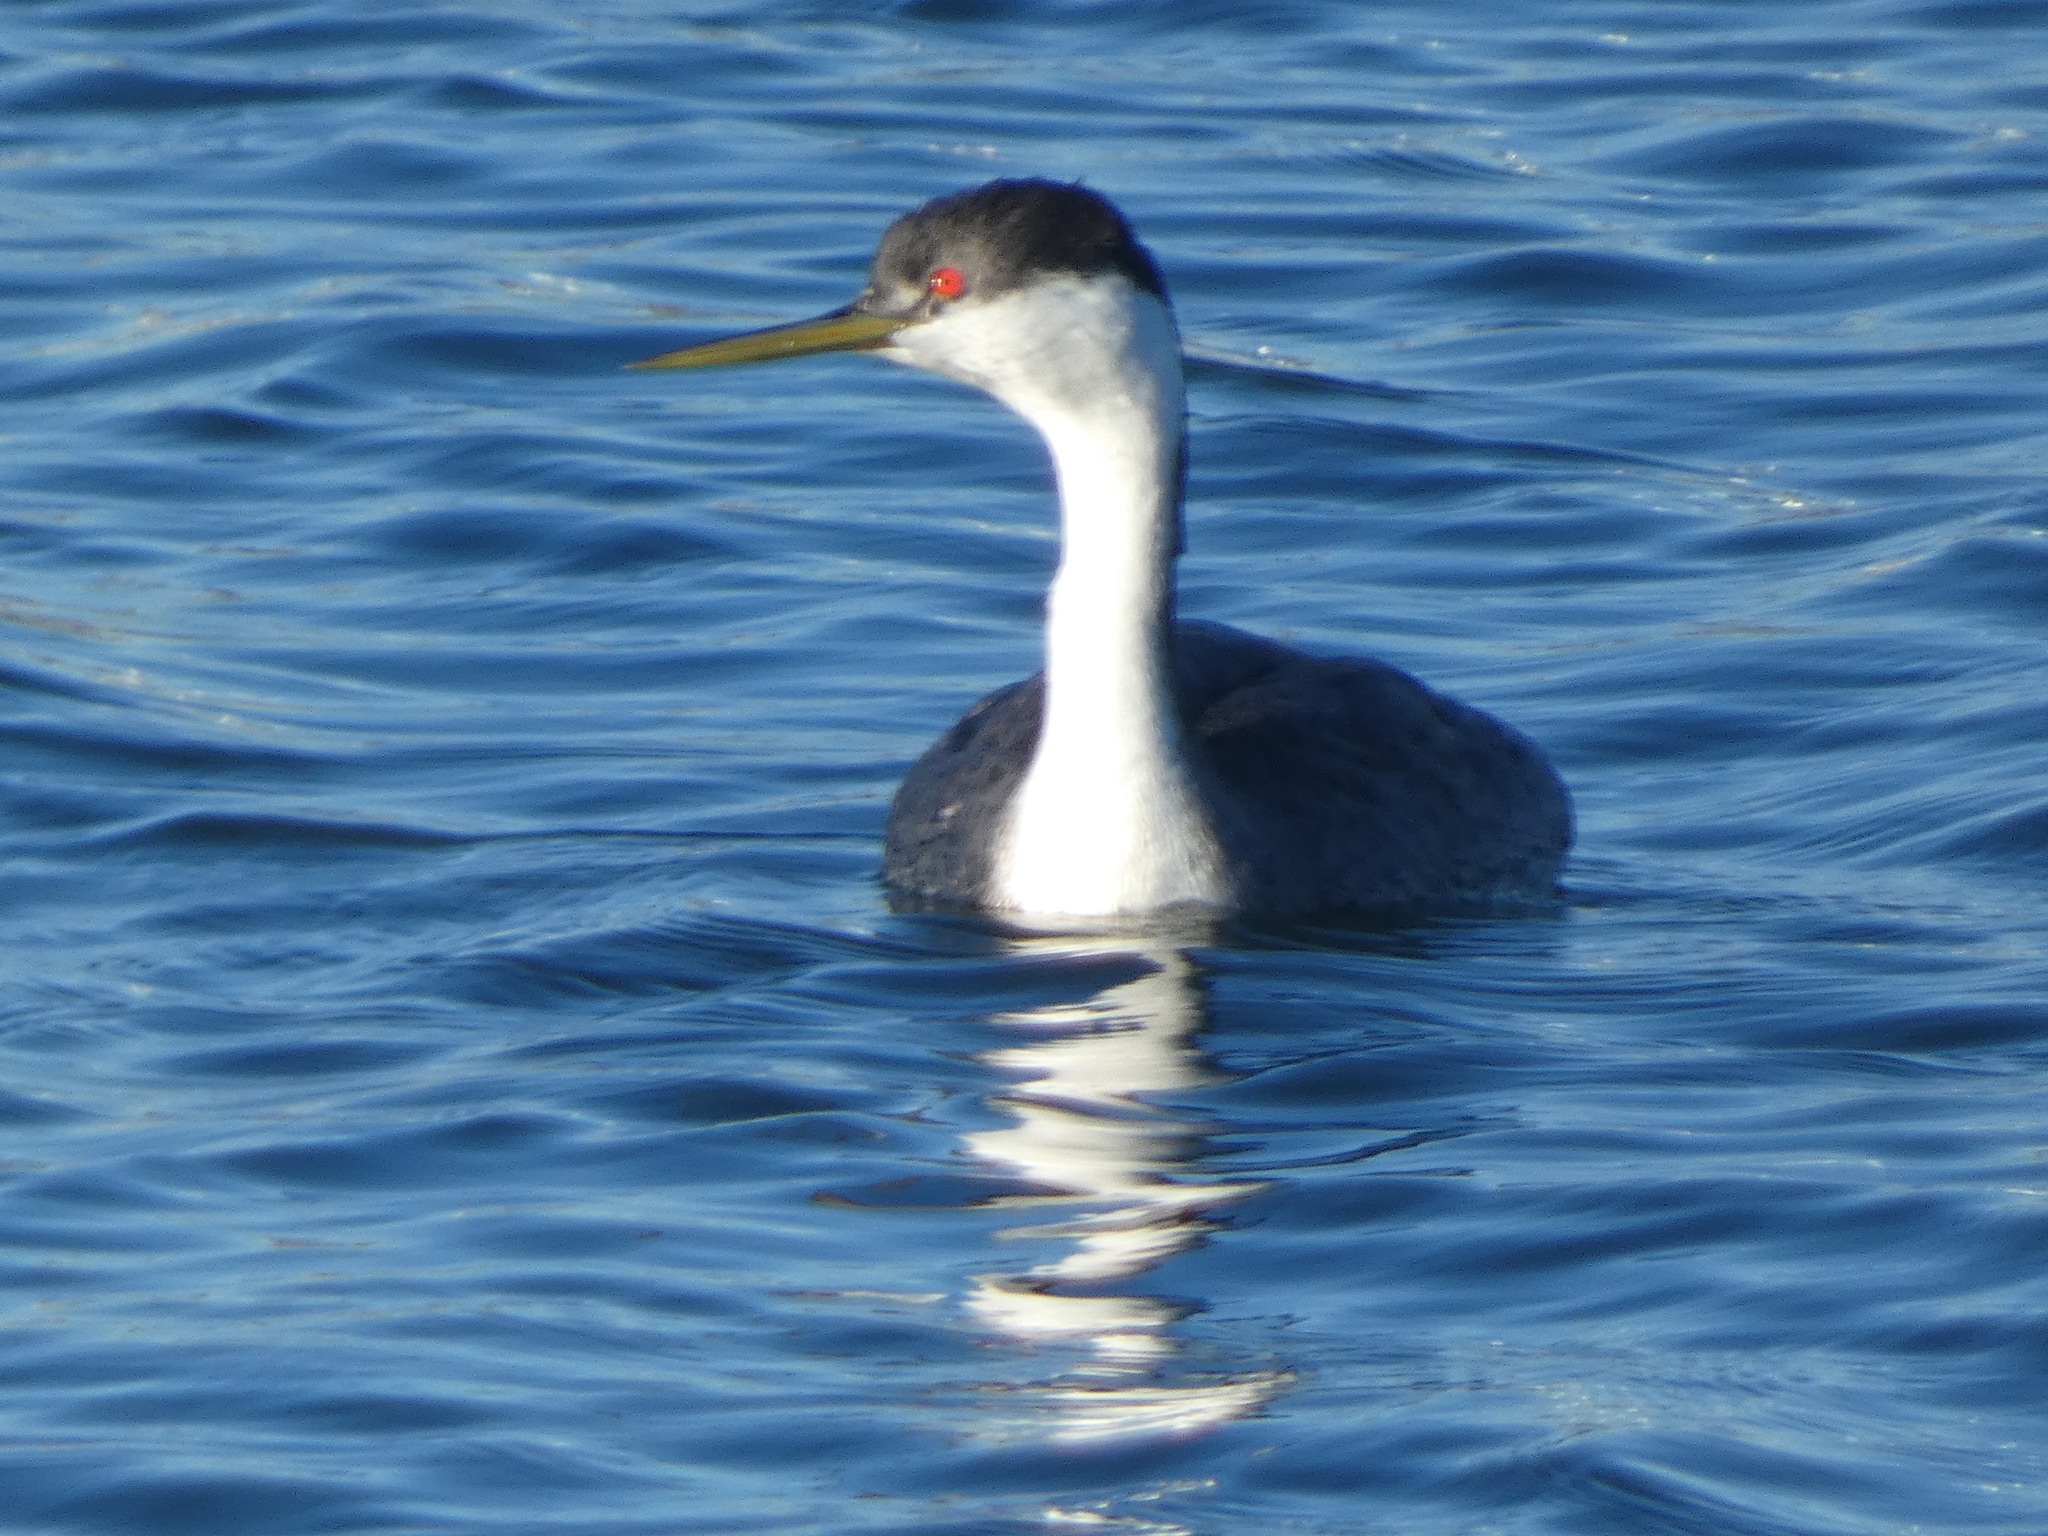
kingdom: Animalia
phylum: Chordata
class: Aves
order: Podicipediformes
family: Podicipedidae
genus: Aechmophorus
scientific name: Aechmophorus occidentalis
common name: Western grebe
